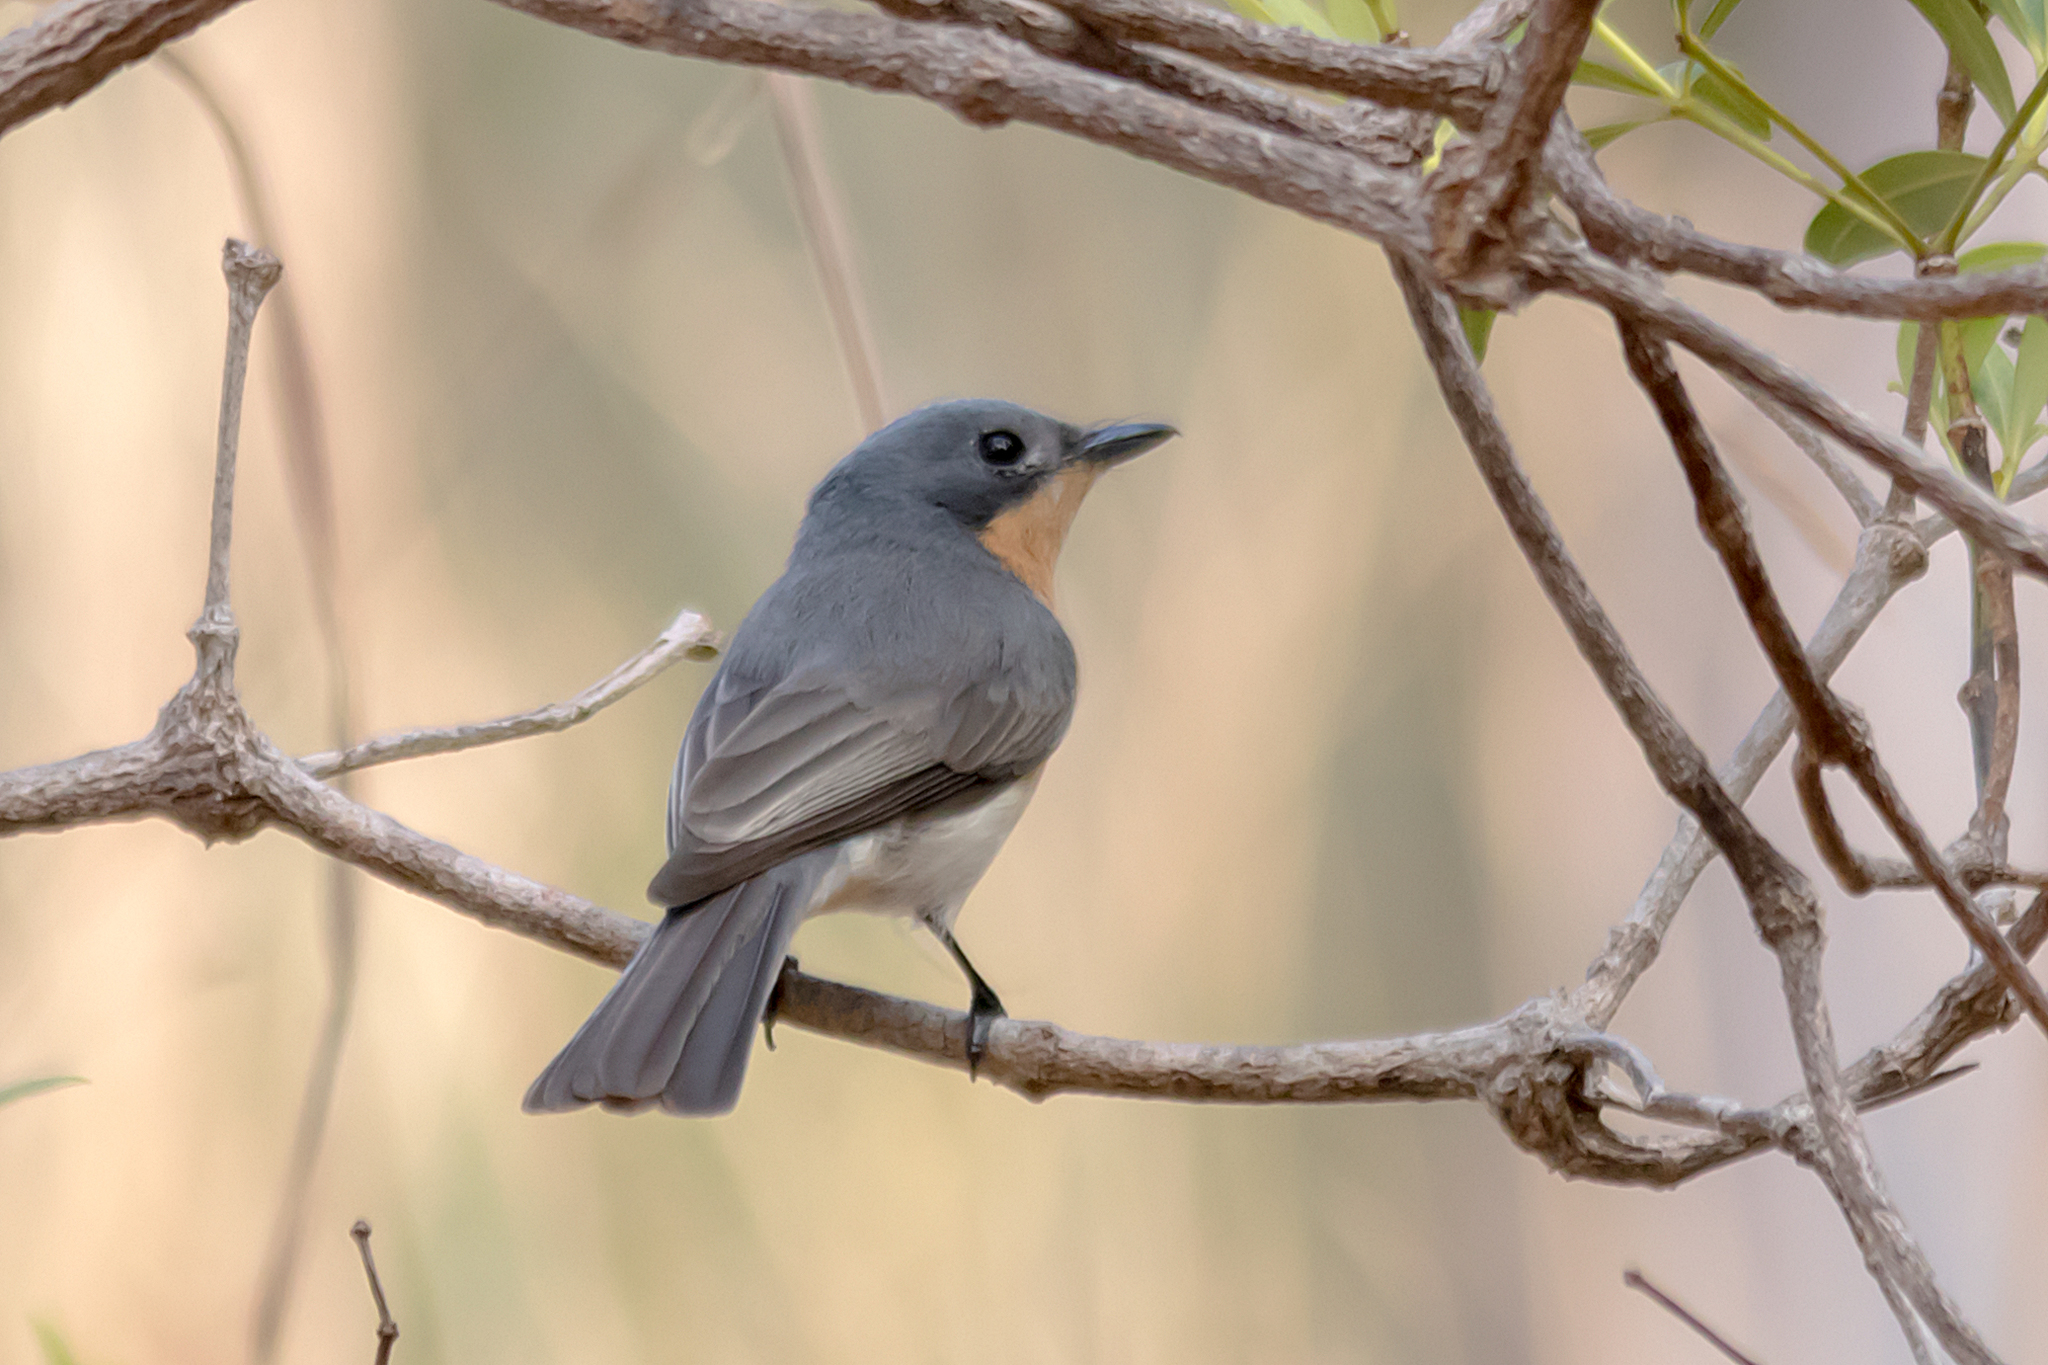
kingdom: Animalia
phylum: Chordata
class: Aves
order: Passeriformes
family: Monarchidae
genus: Myiagra
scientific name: Myiagra rubecula
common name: Leaden flycatcher
